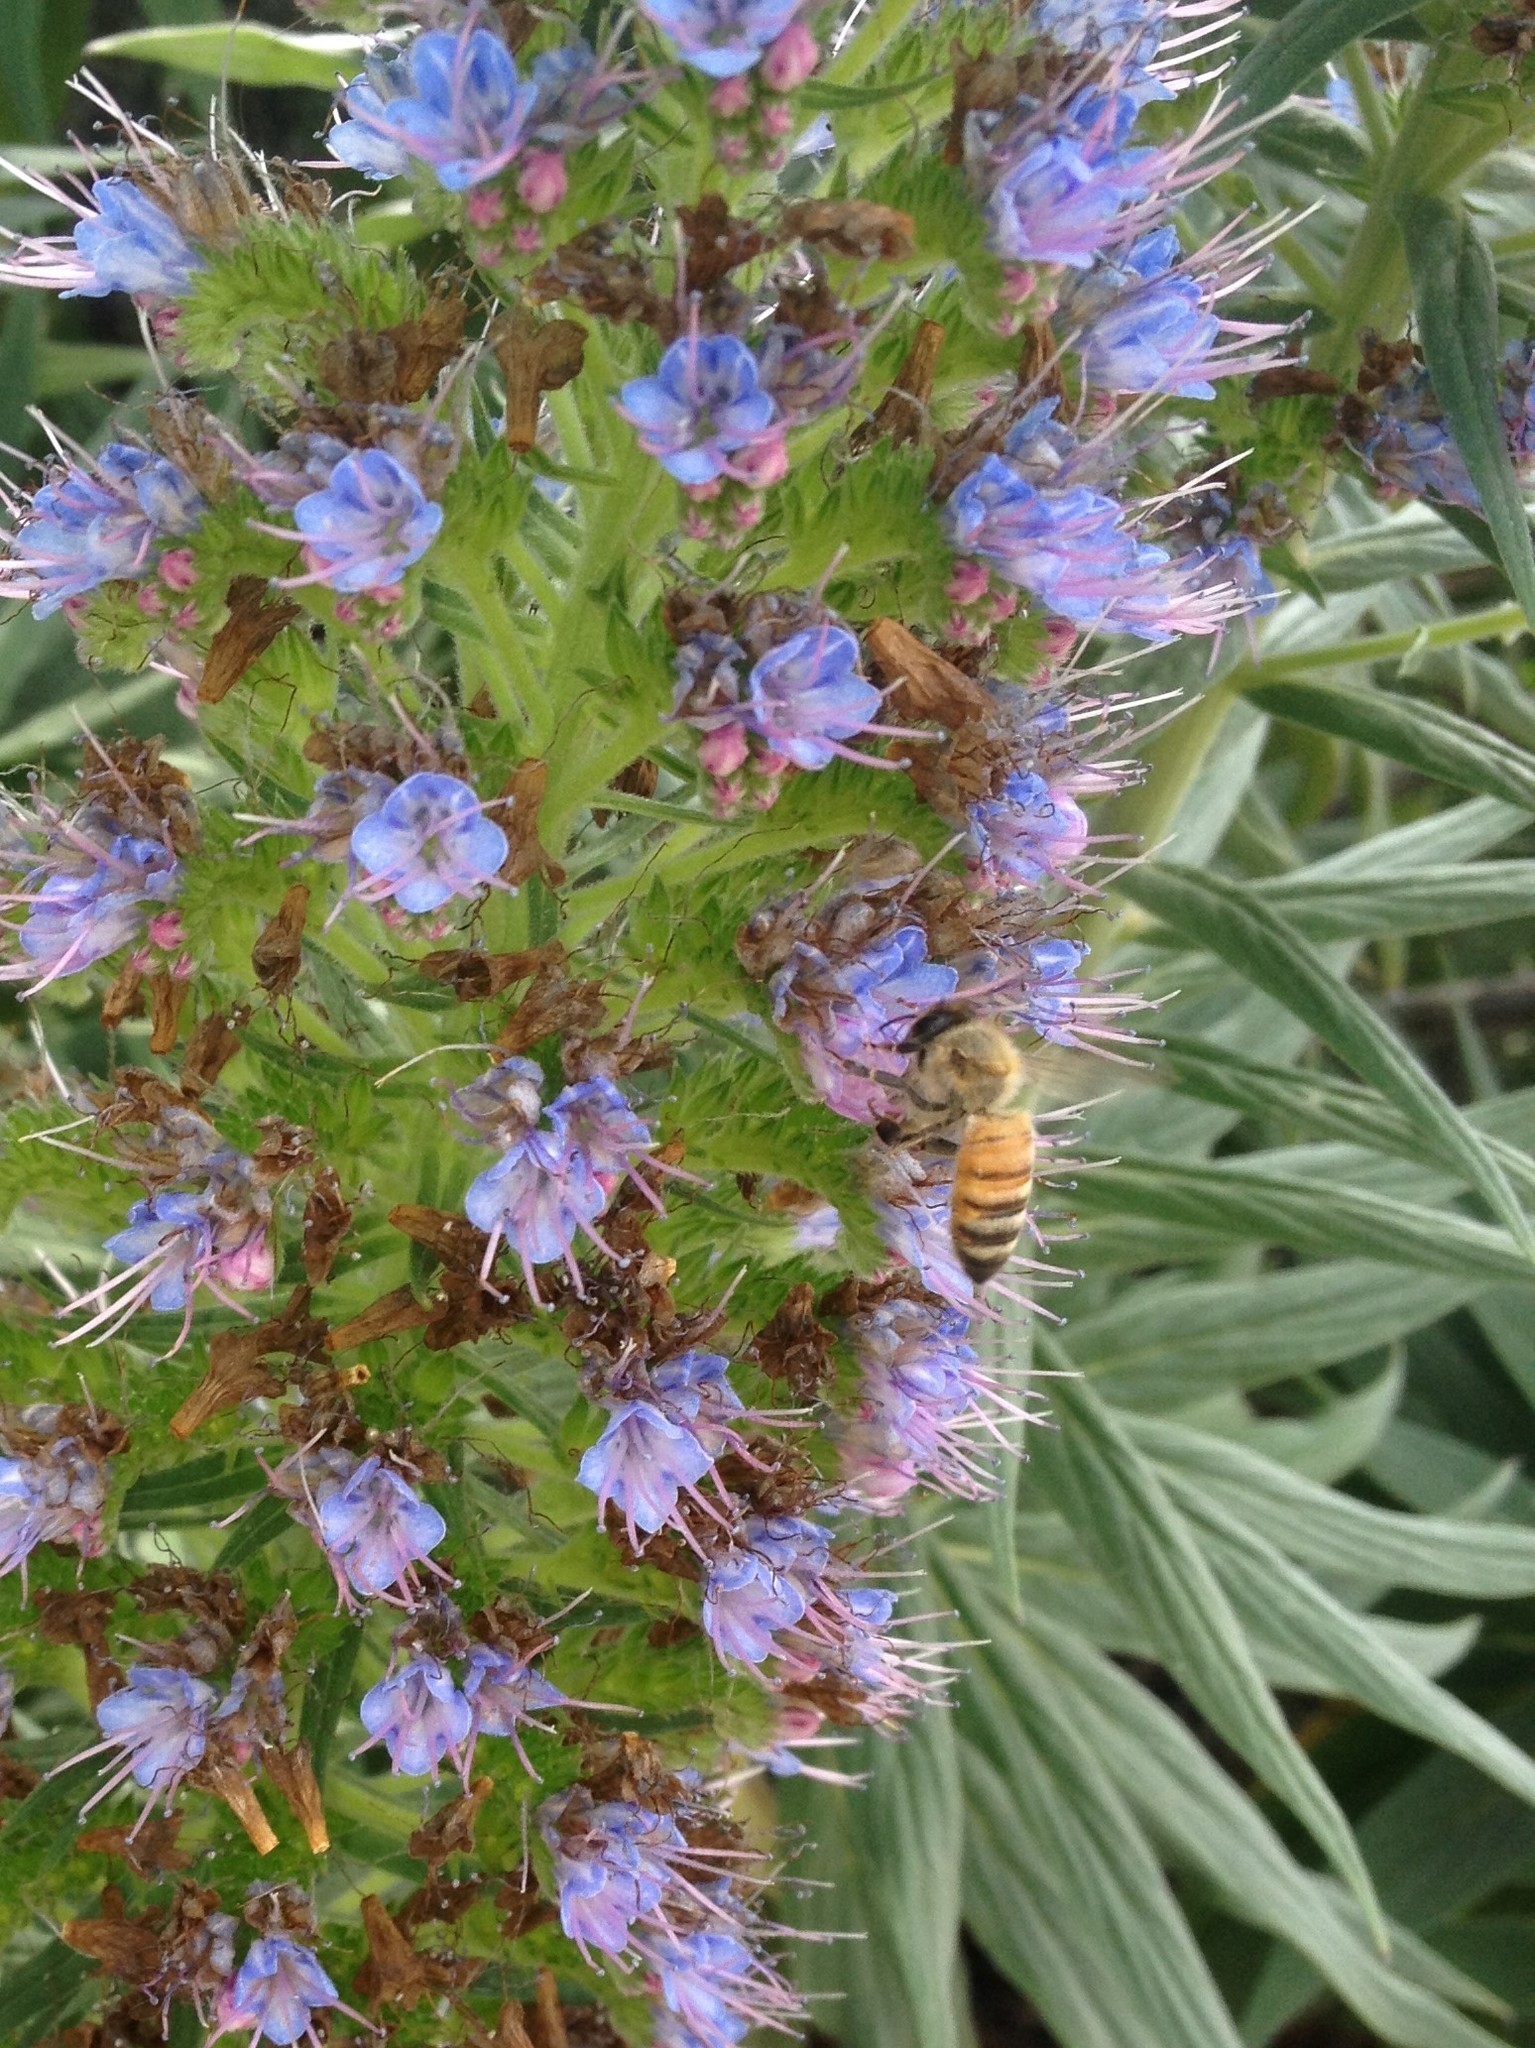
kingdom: Animalia
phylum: Arthropoda
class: Insecta
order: Hymenoptera
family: Apidae
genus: Apis
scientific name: Apis mellifera
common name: Honey bee
